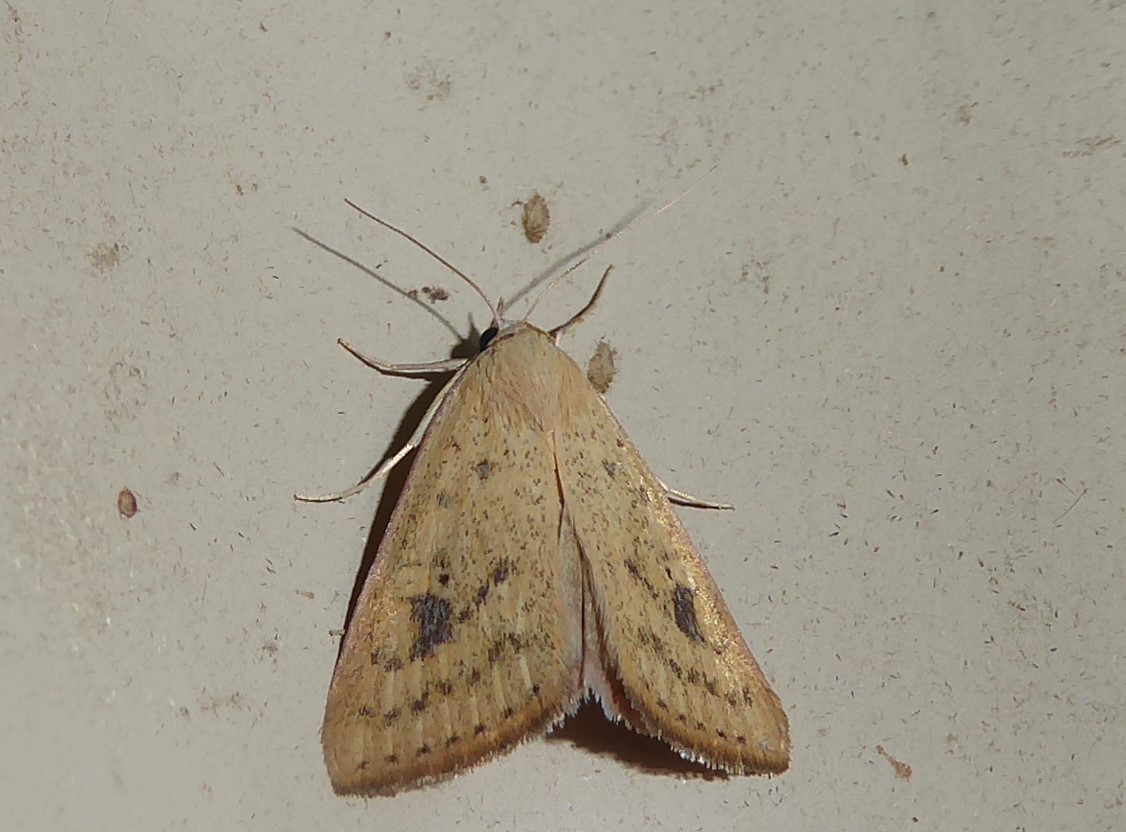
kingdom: Animalia
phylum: Arthropoda
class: Insecta
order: Lepidoptera
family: Erebidae
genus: Phytometra
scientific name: Phytometra laevis
